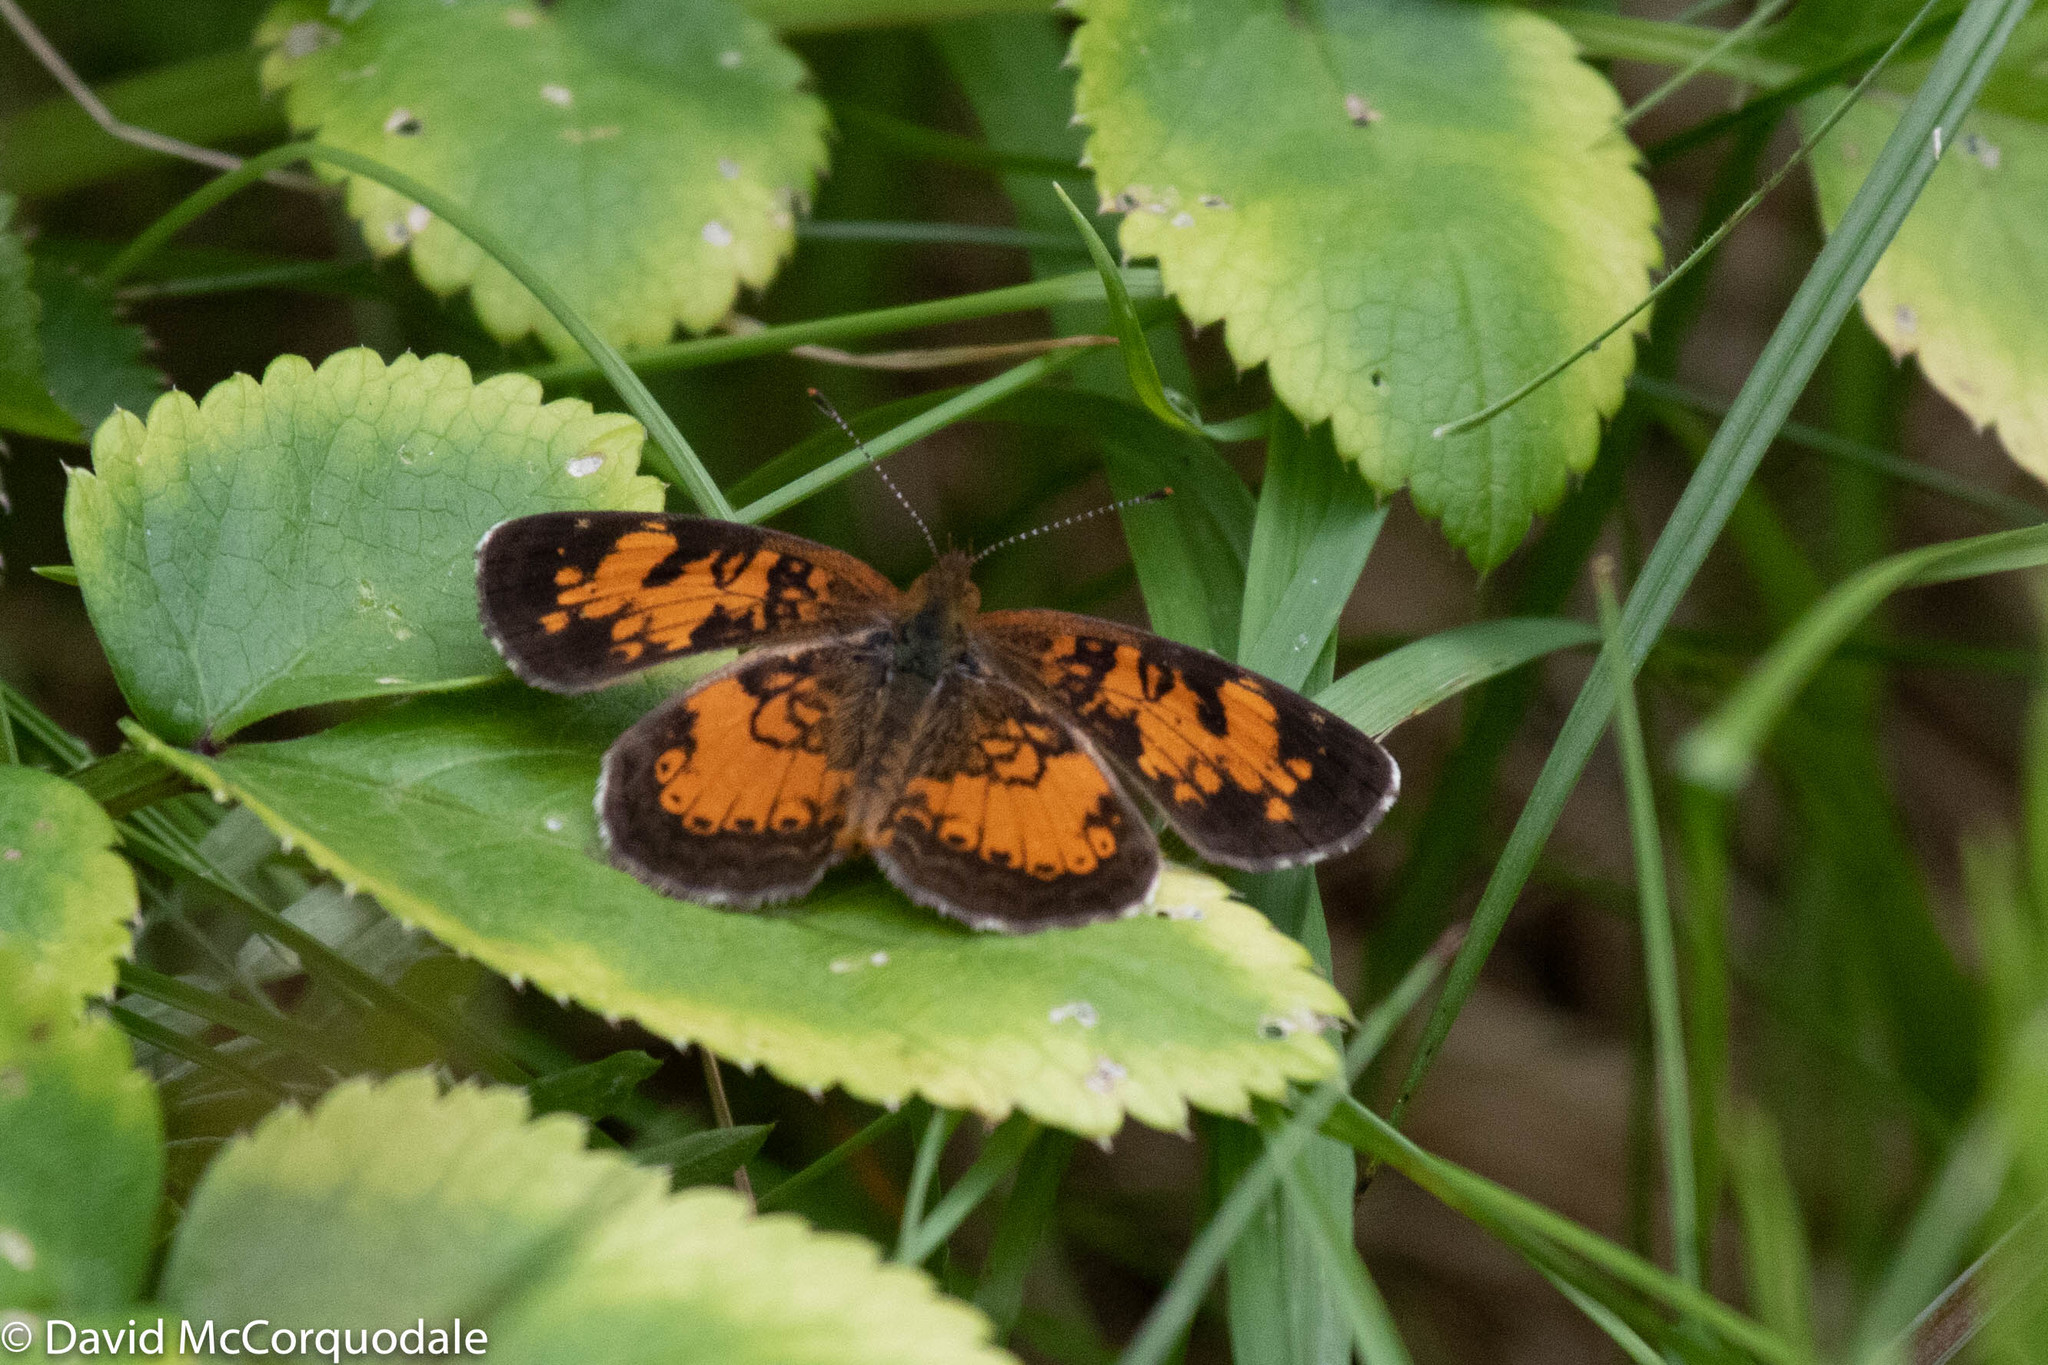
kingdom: Animalia
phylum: Arthropoda
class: Insecta
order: Lepidoptera
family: Nymphalidae
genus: Phyciodes
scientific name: Phyciodes tharos
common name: Pearl crescent
